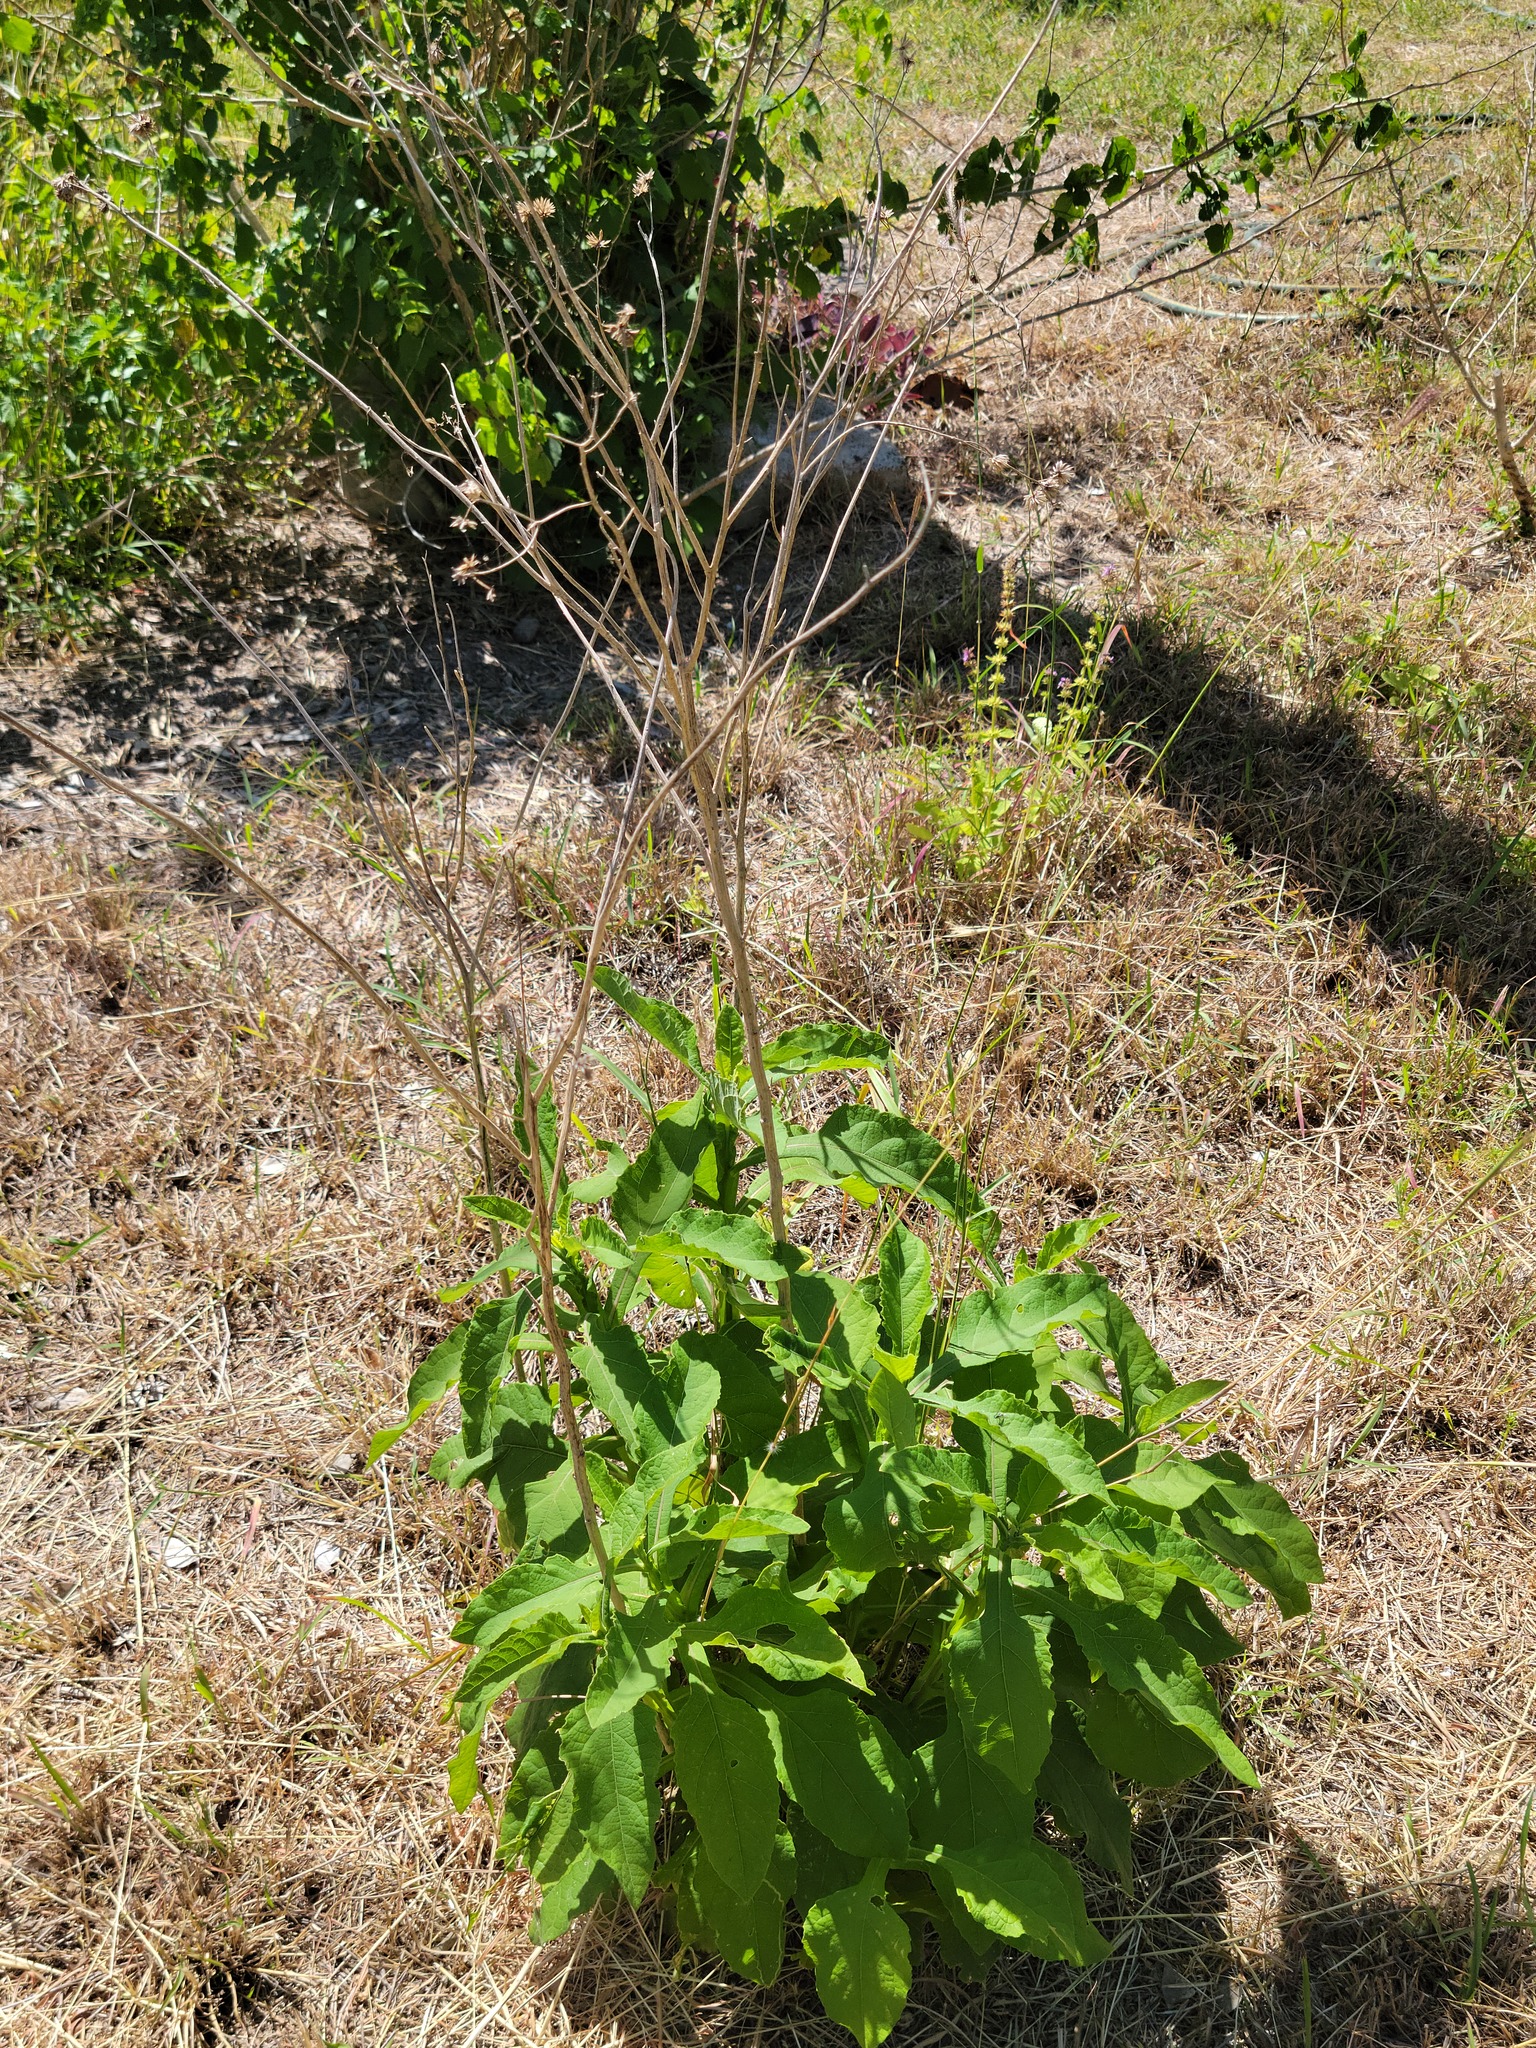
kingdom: Plantae
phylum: Tracheophyta
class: Magnoliopsida
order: Asterales
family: Asteraceae
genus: Verbesina
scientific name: Verbesina microptera
